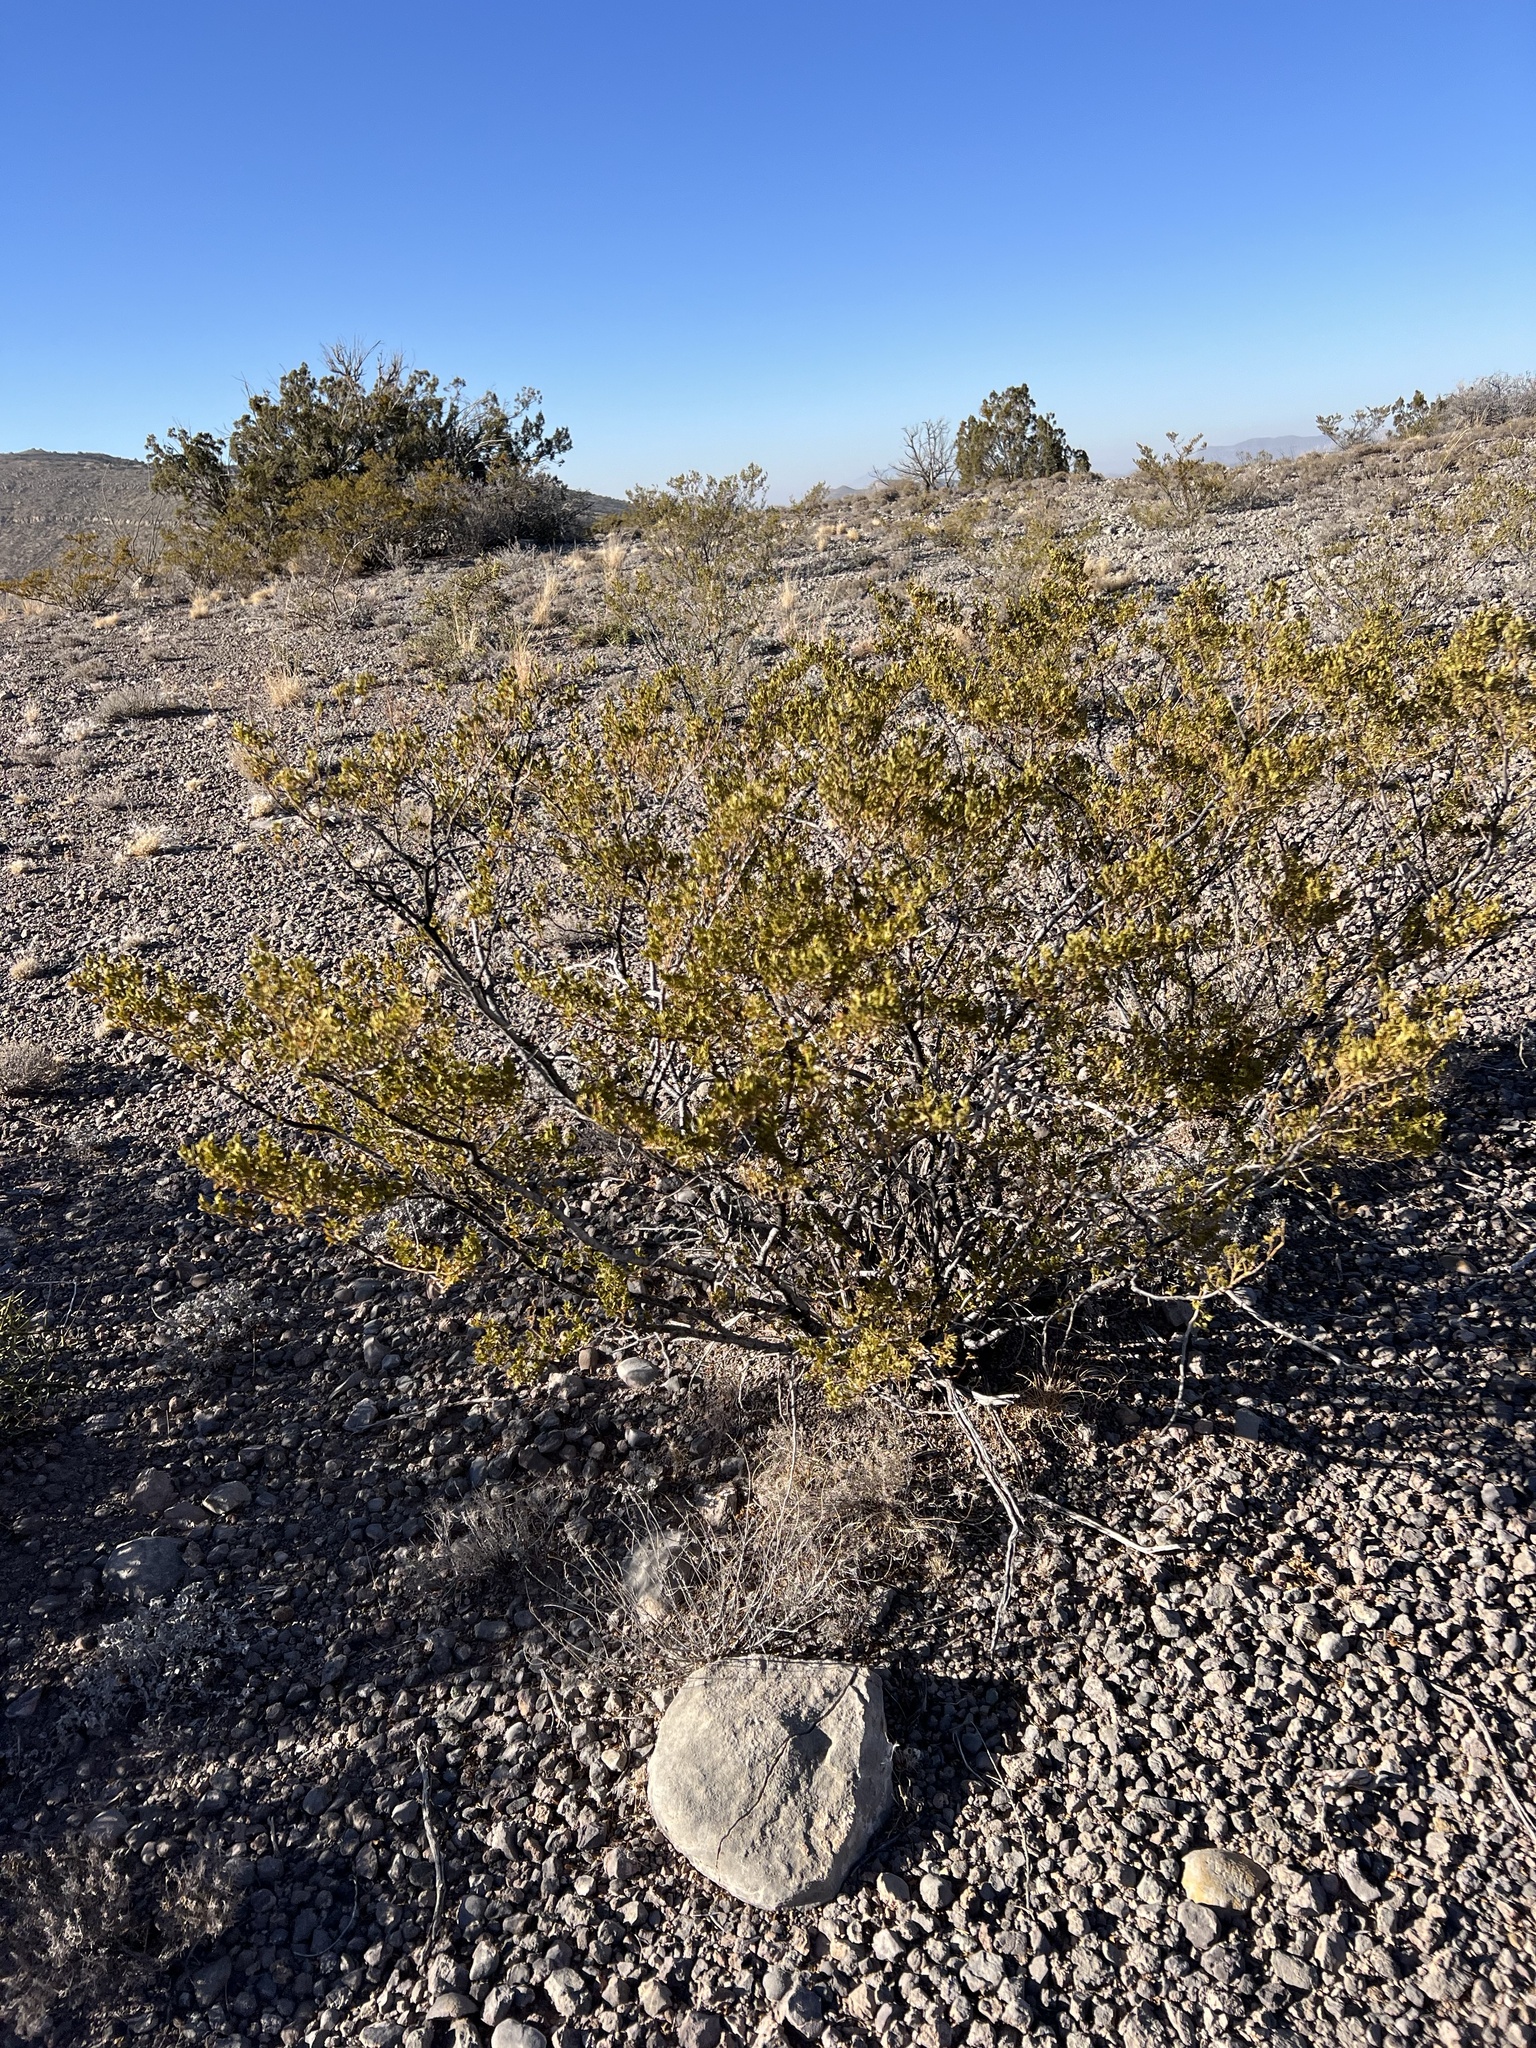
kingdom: Plantae
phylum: Tracheophyta
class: Magnoliopsida
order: Zygophyllales
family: Zygophyllaceae
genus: Larrea
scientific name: Larrea tridentata
